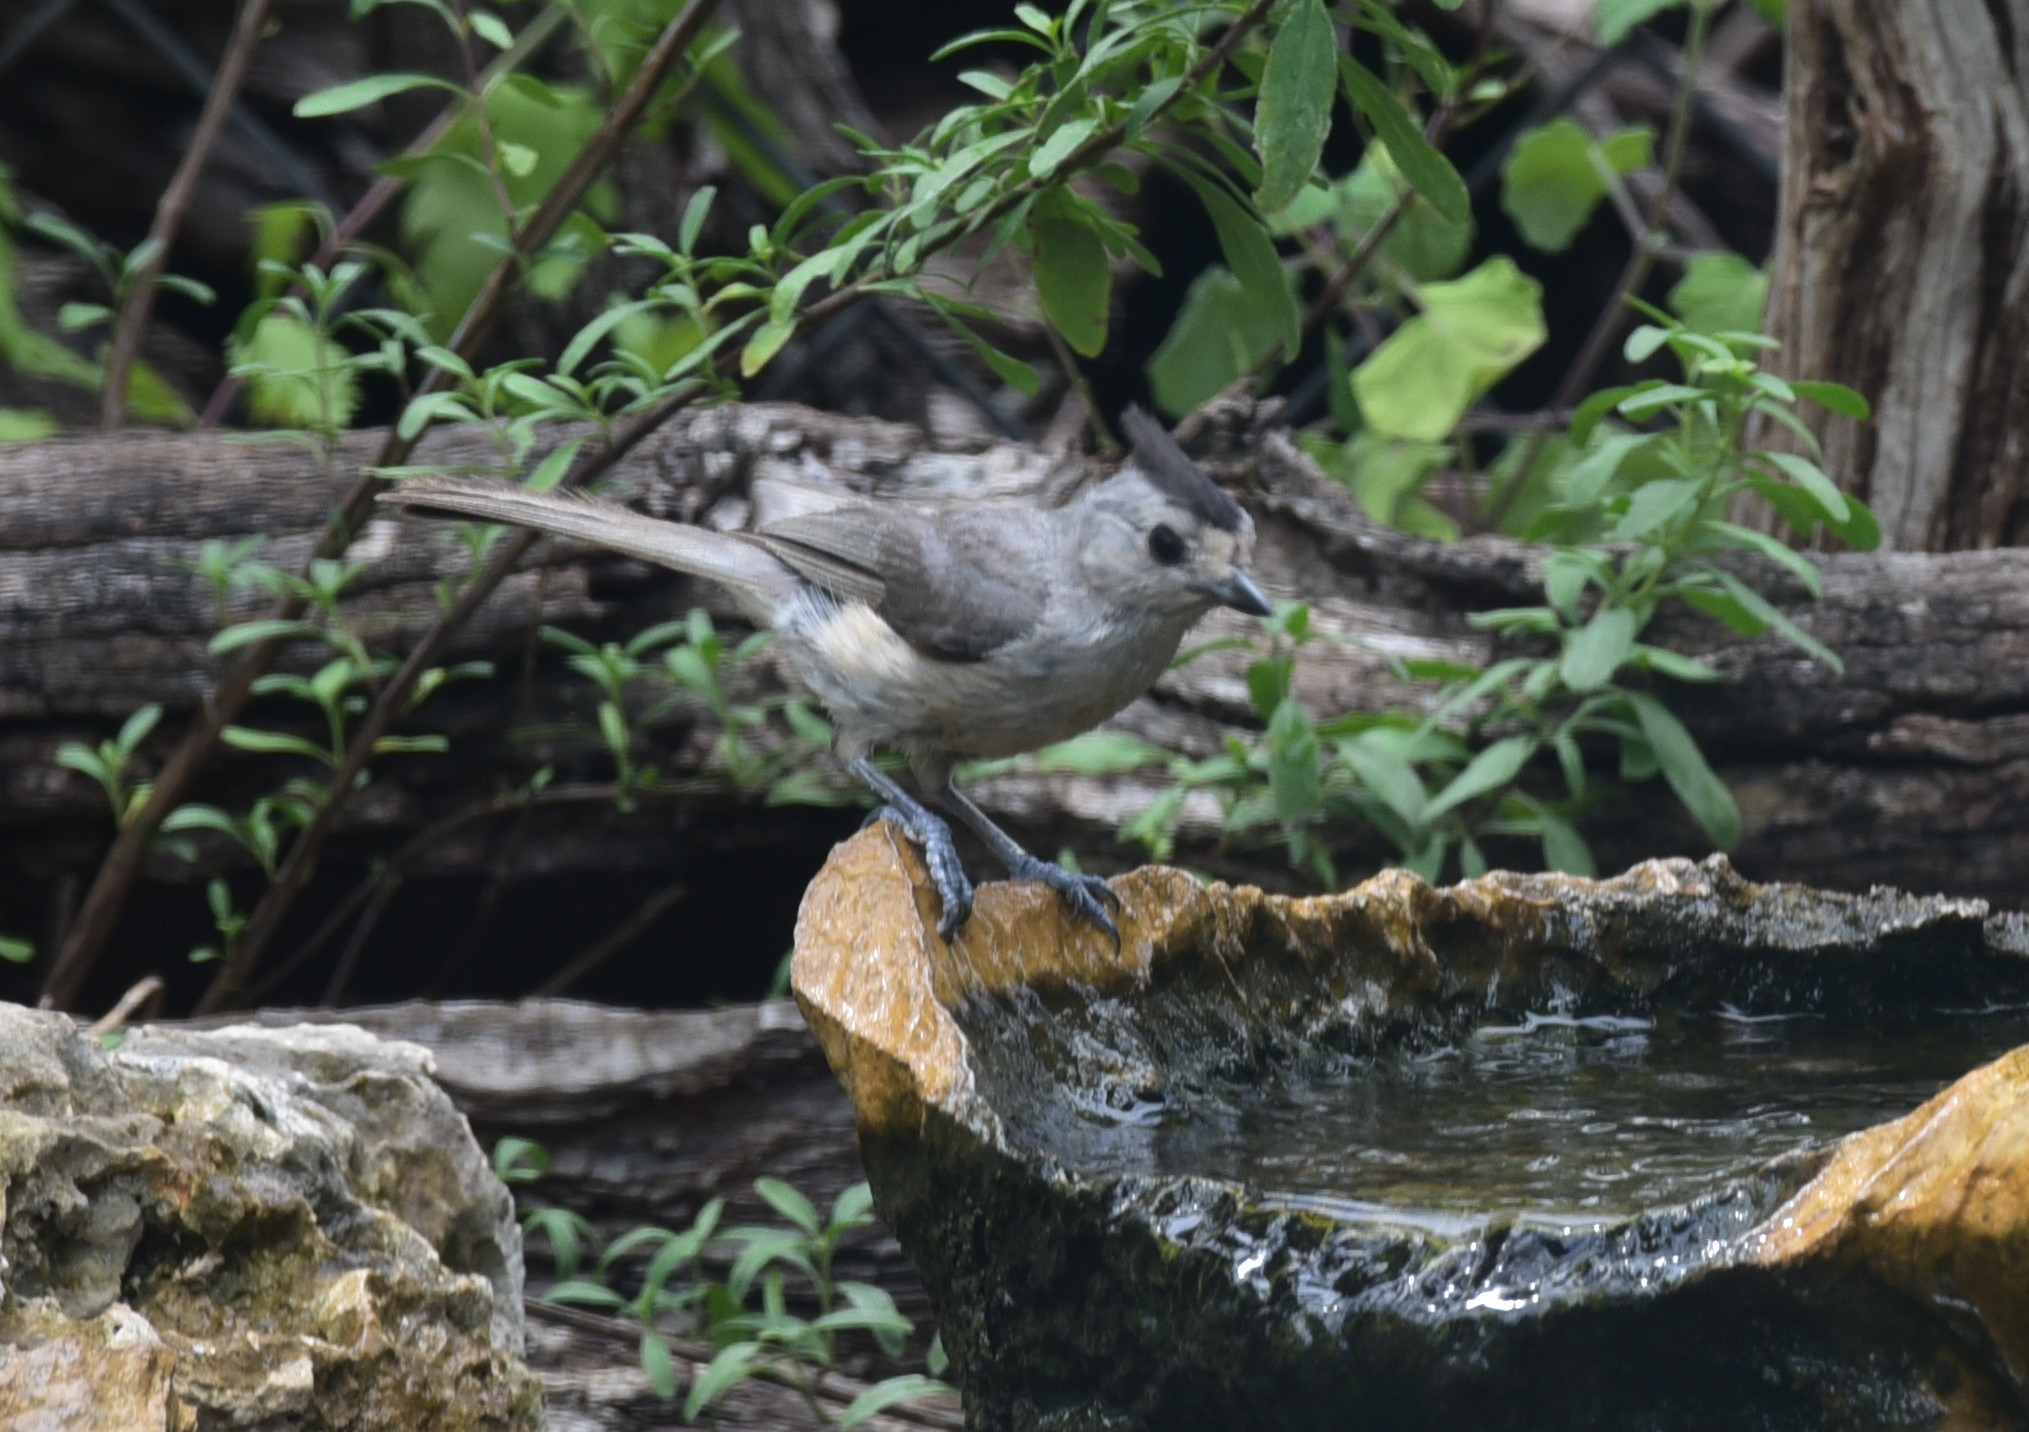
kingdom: Animalia
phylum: Chordata
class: Aves
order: Passeriformes
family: Paridae
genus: Baeolophus
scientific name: Baeolophus atricristatus
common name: Black-crested titmouse
